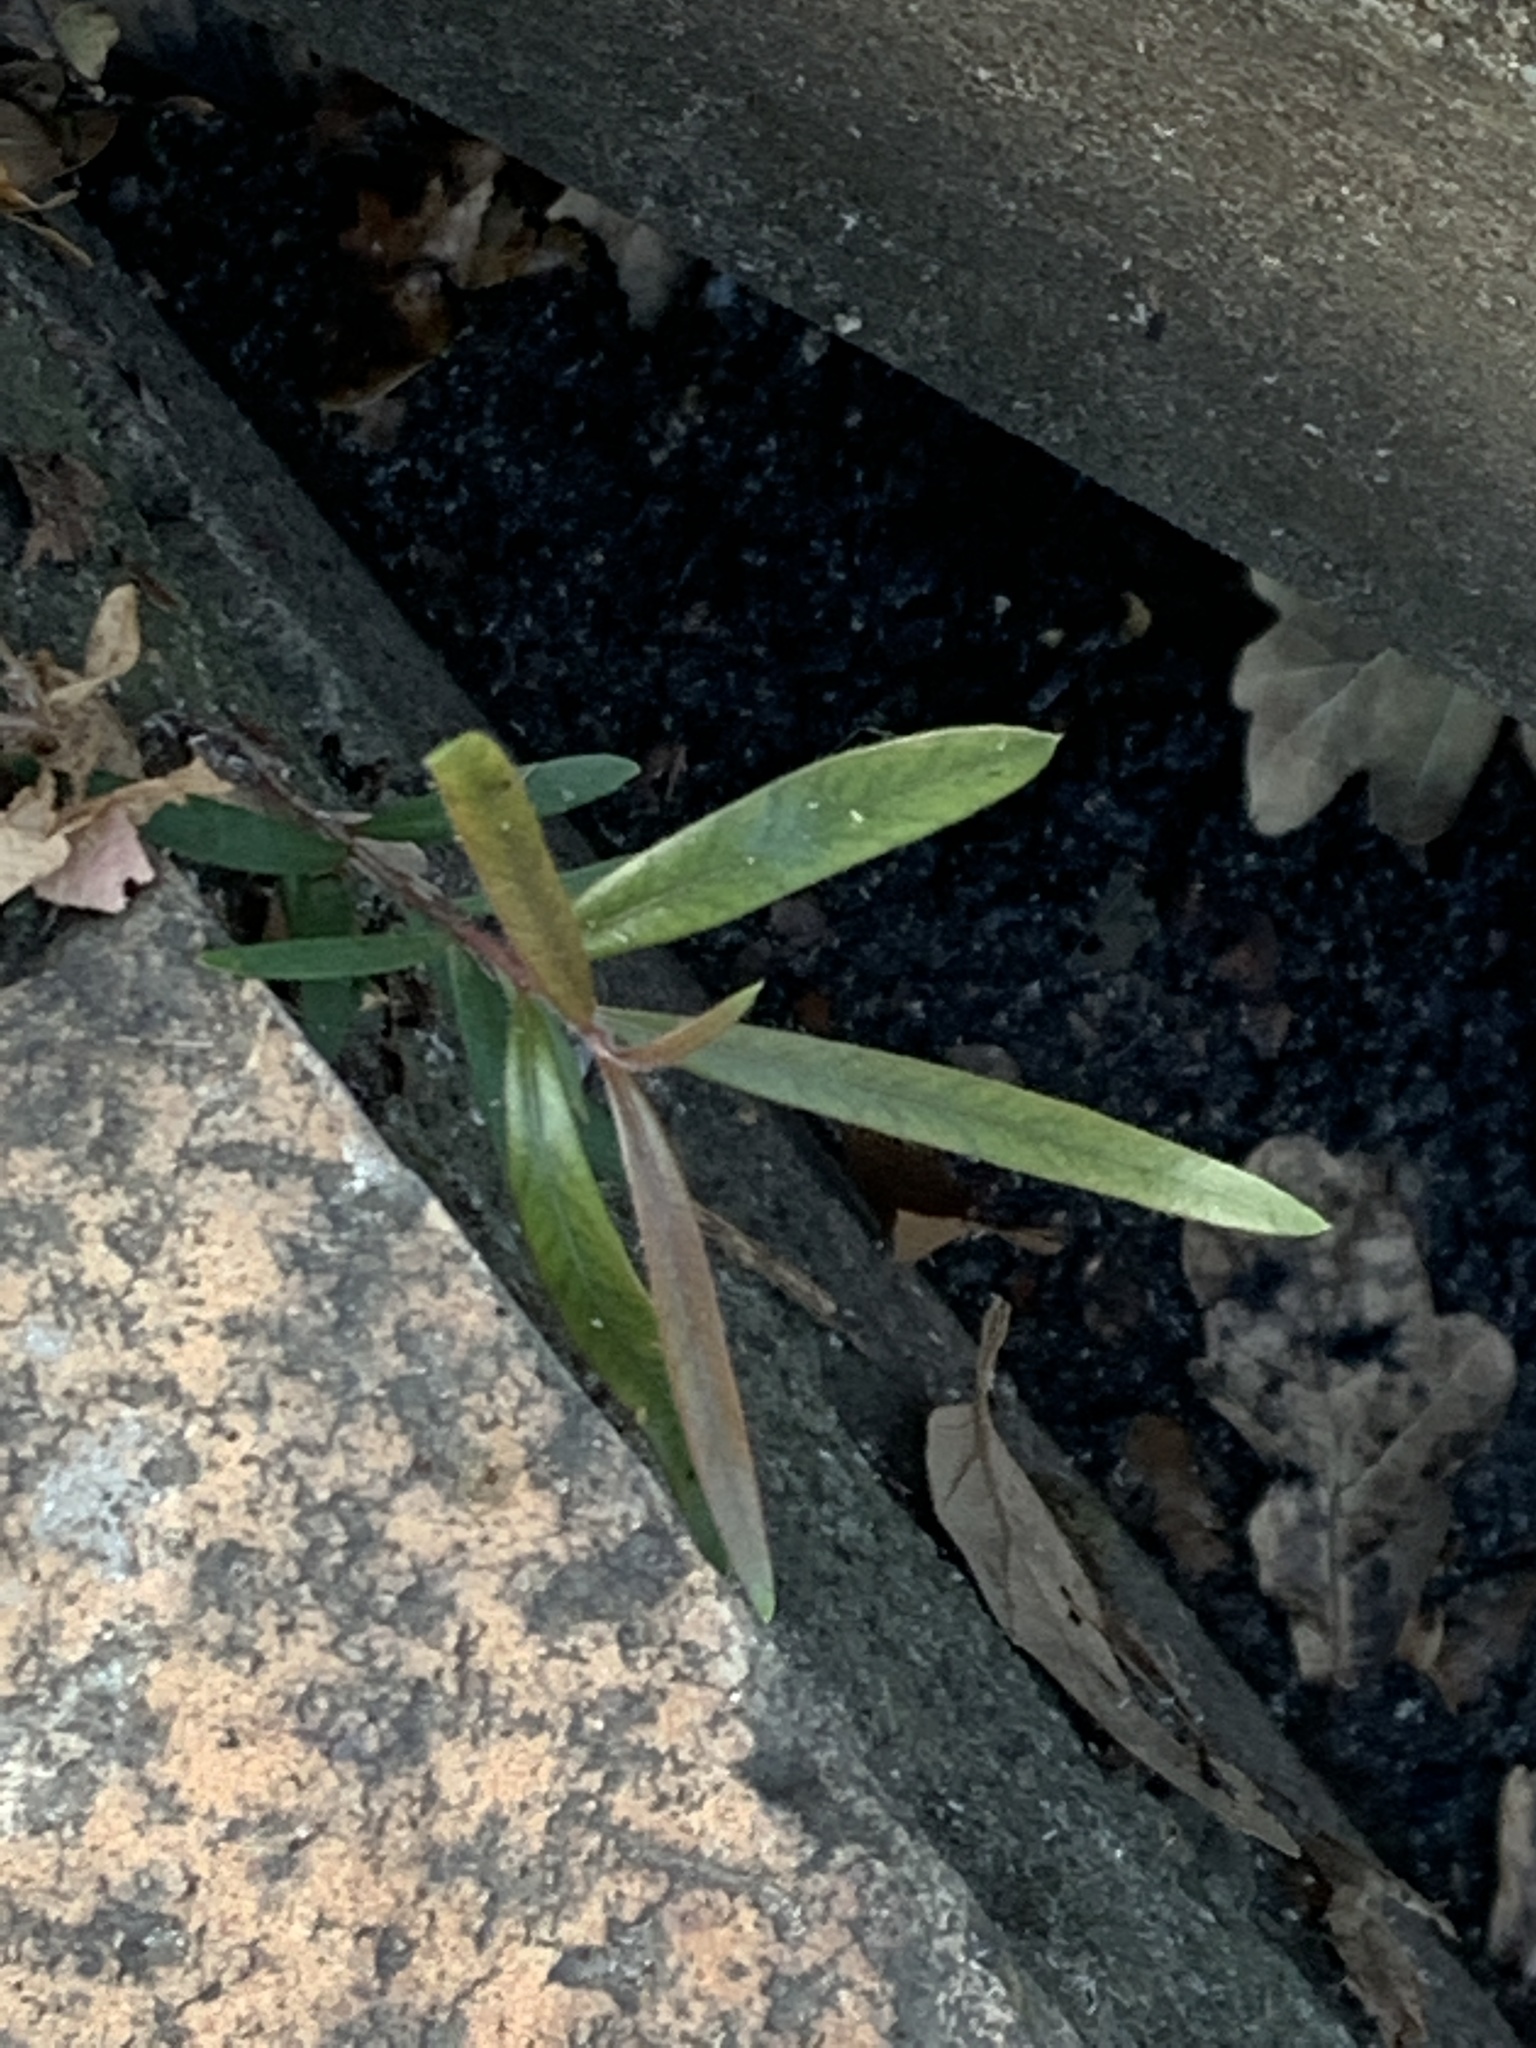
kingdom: Plantae
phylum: Tracheophyta
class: Magnoliopsida
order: Myrtales
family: Myrtaceae
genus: Callistemon
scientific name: Callistemon viminalis
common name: Drooping bottlebrush
